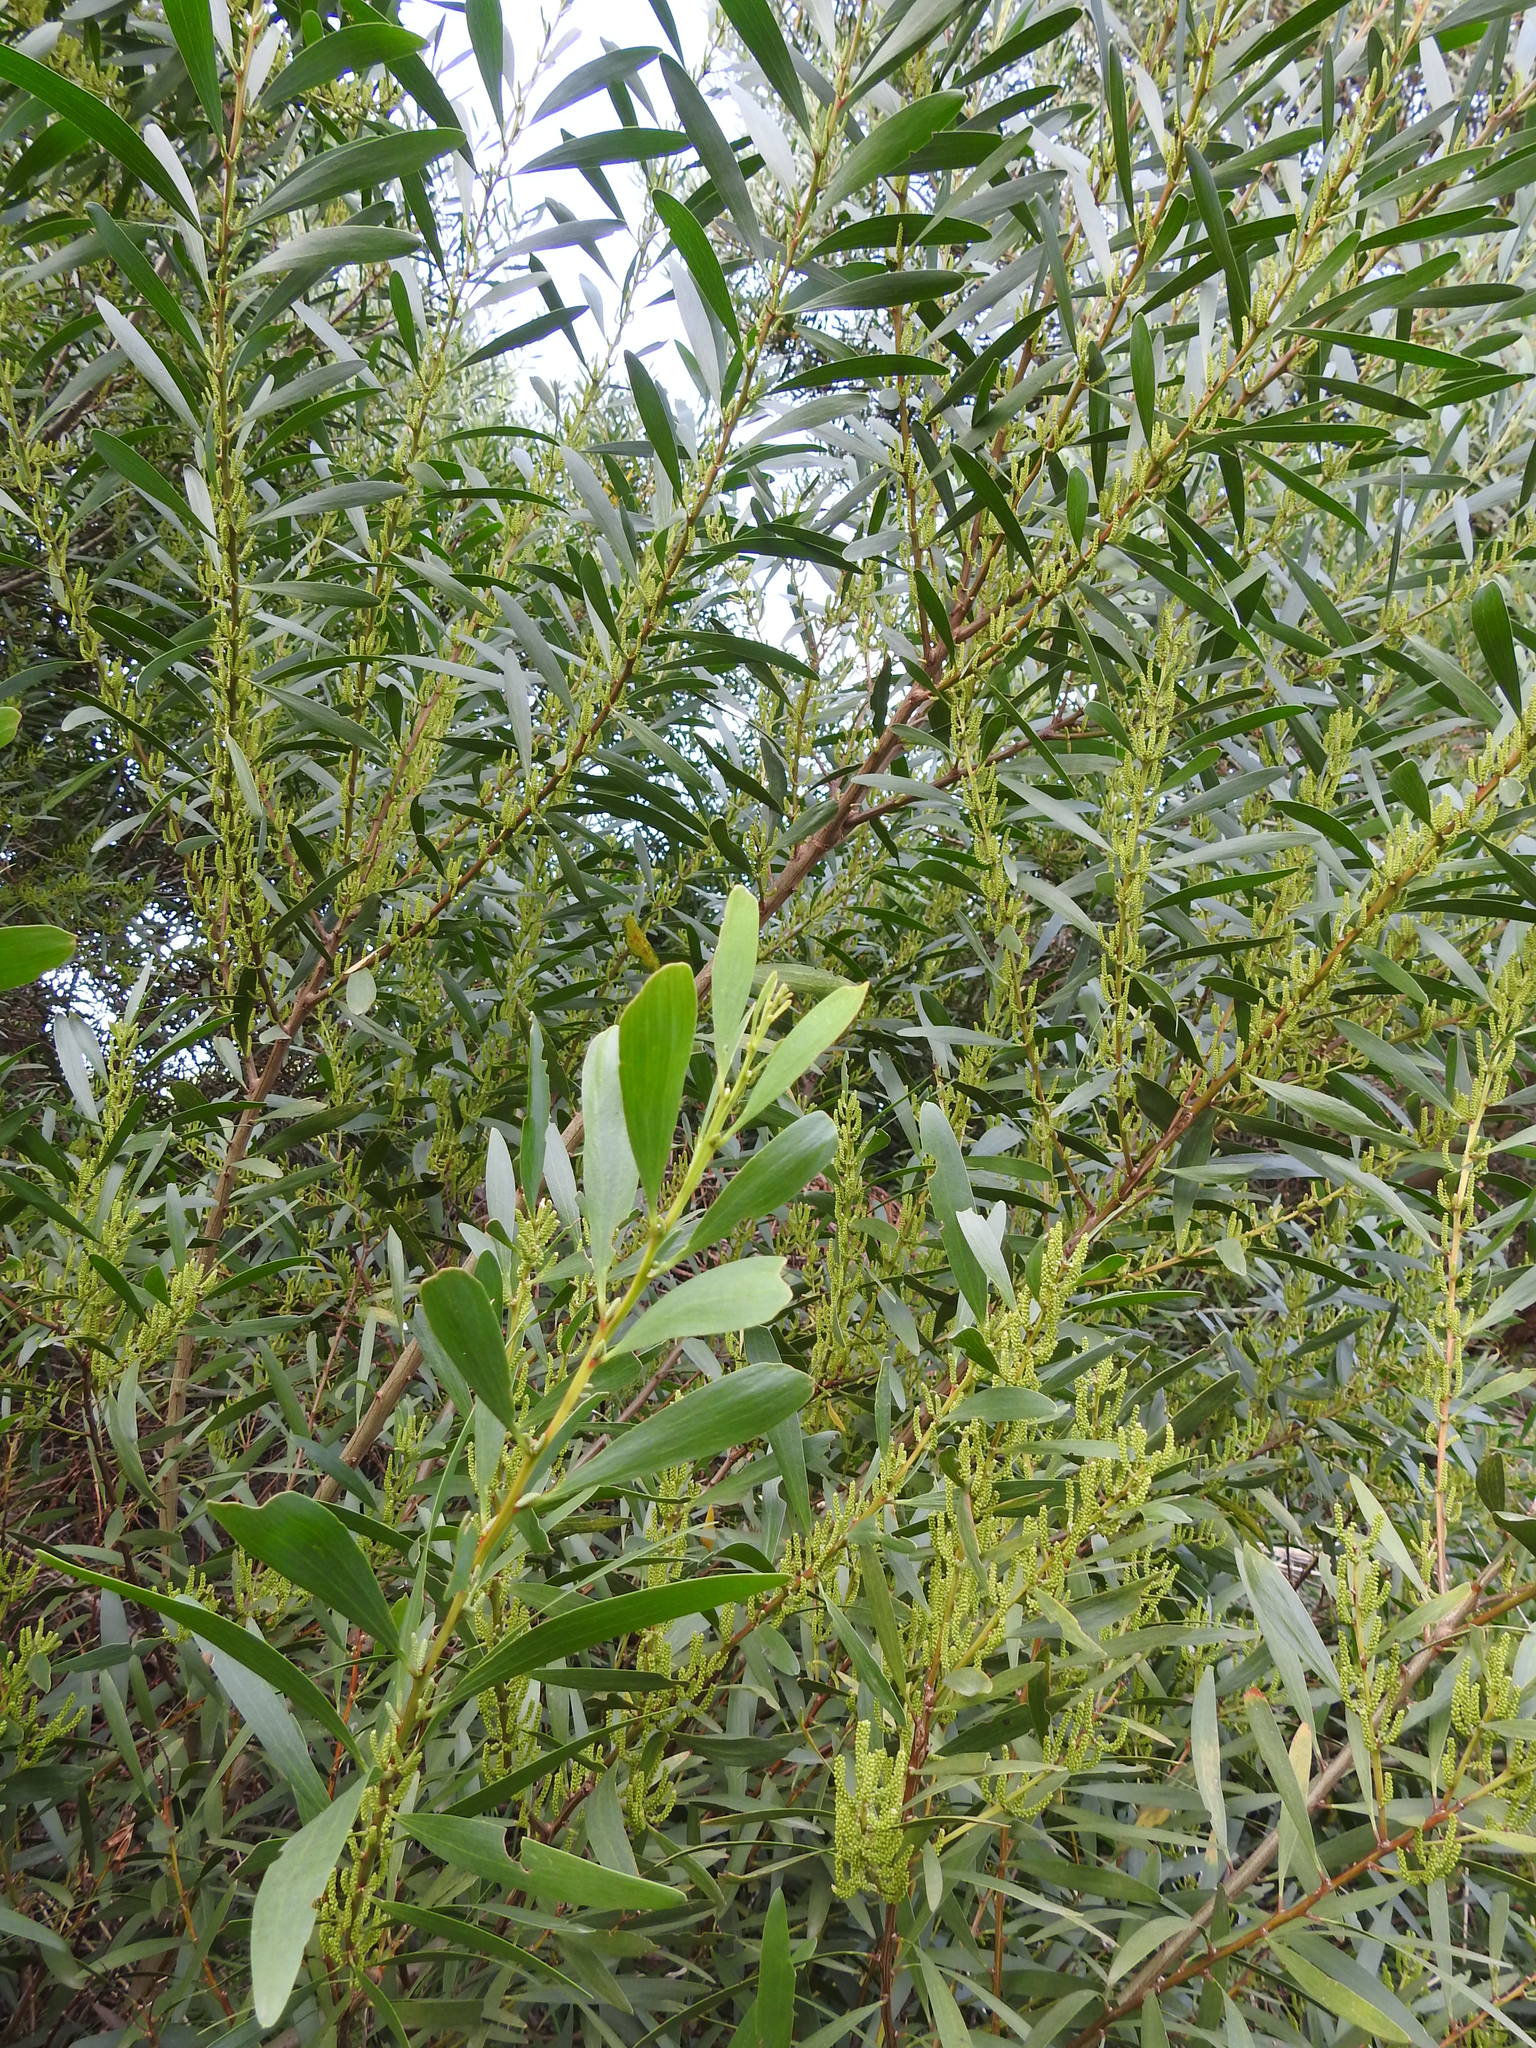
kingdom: Plantae
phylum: Tracheophyta
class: Magnoliopsida
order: Fabales
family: Fabaceae
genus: Acacia
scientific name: Acacia longifolia
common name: Sydney golden wattle
